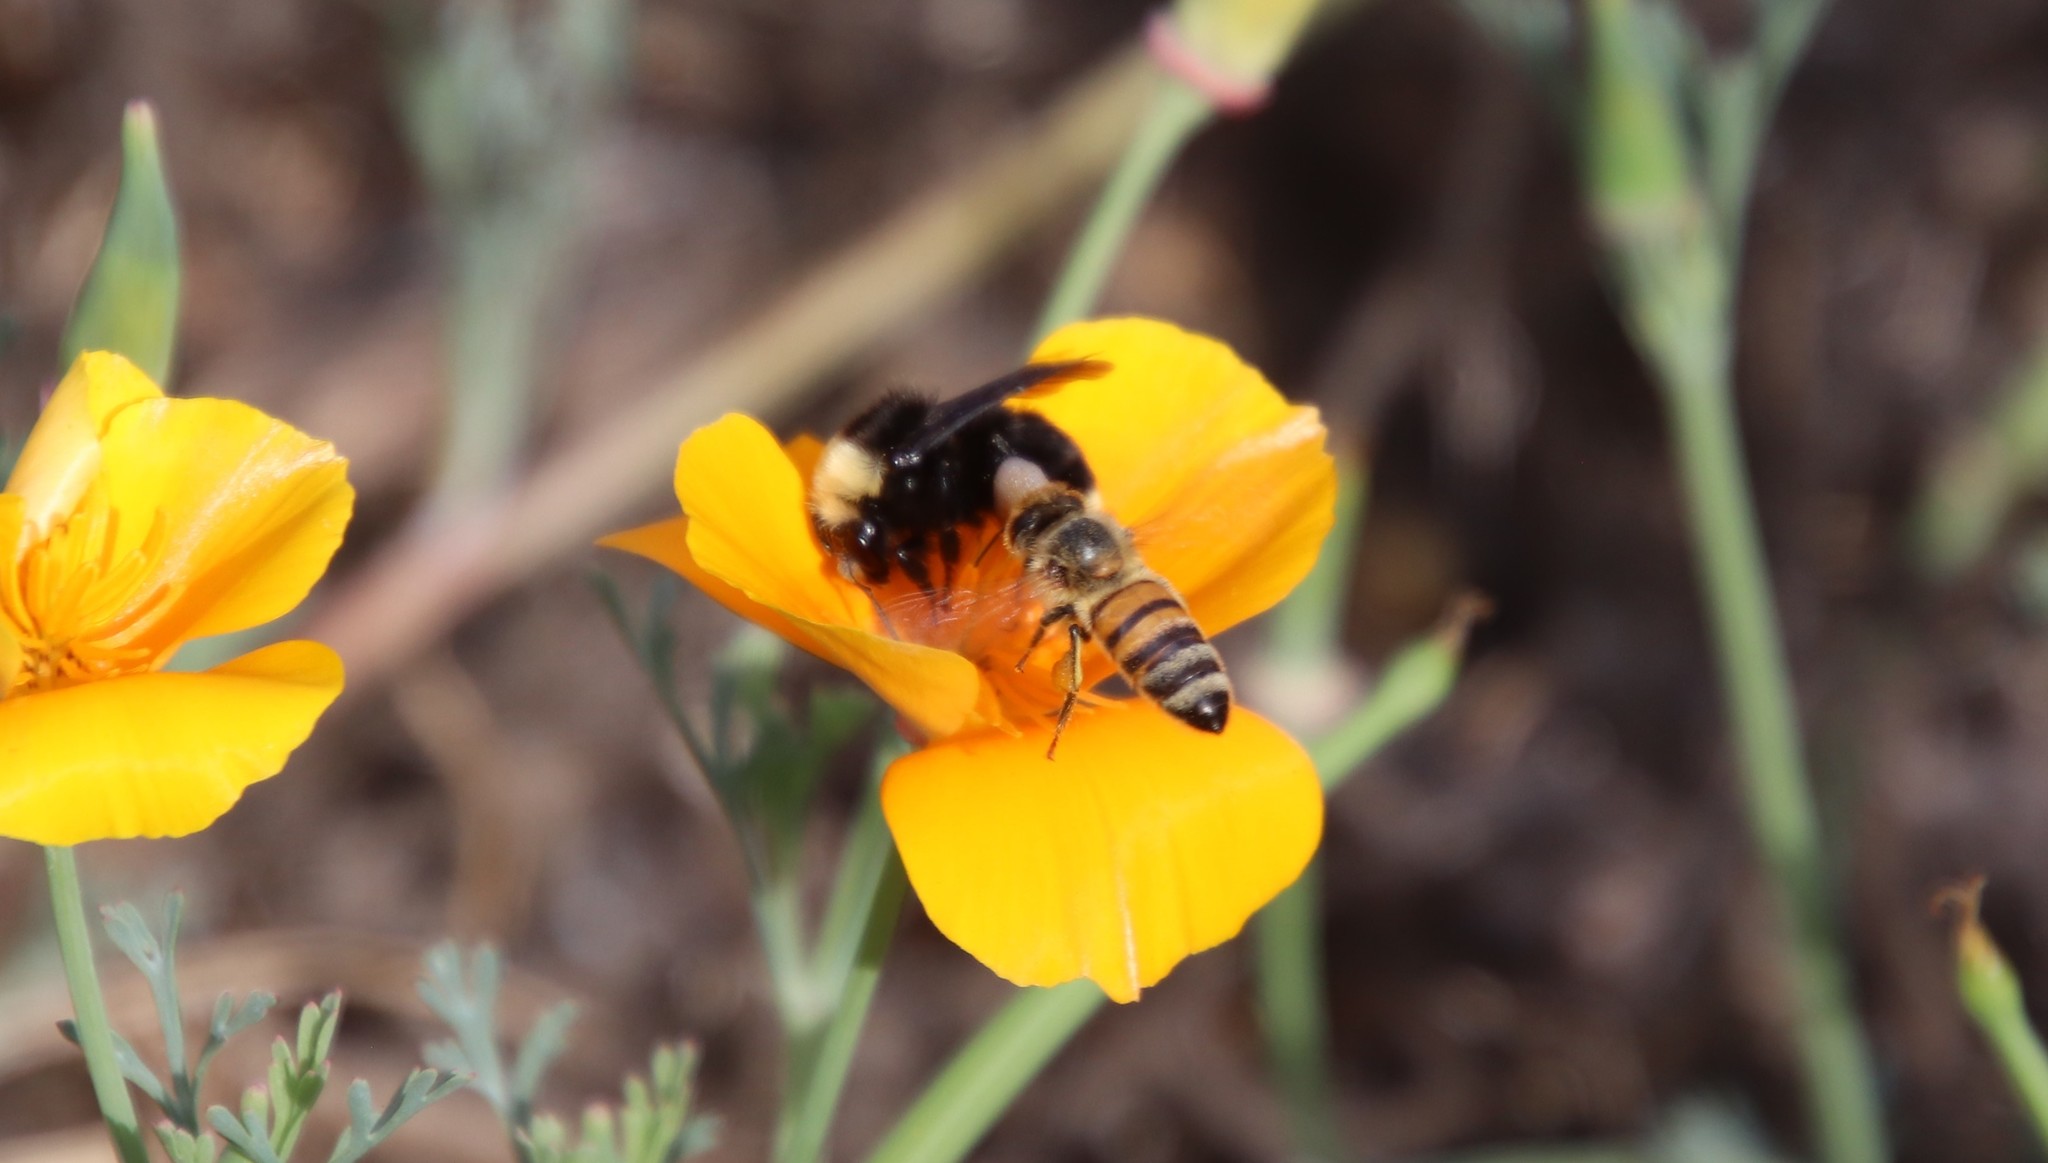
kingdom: Animalia
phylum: Arthropoda
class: Insecta
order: Hymenoptera
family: Apidae
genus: Apis
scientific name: Apis mellifera
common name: Honey bee
